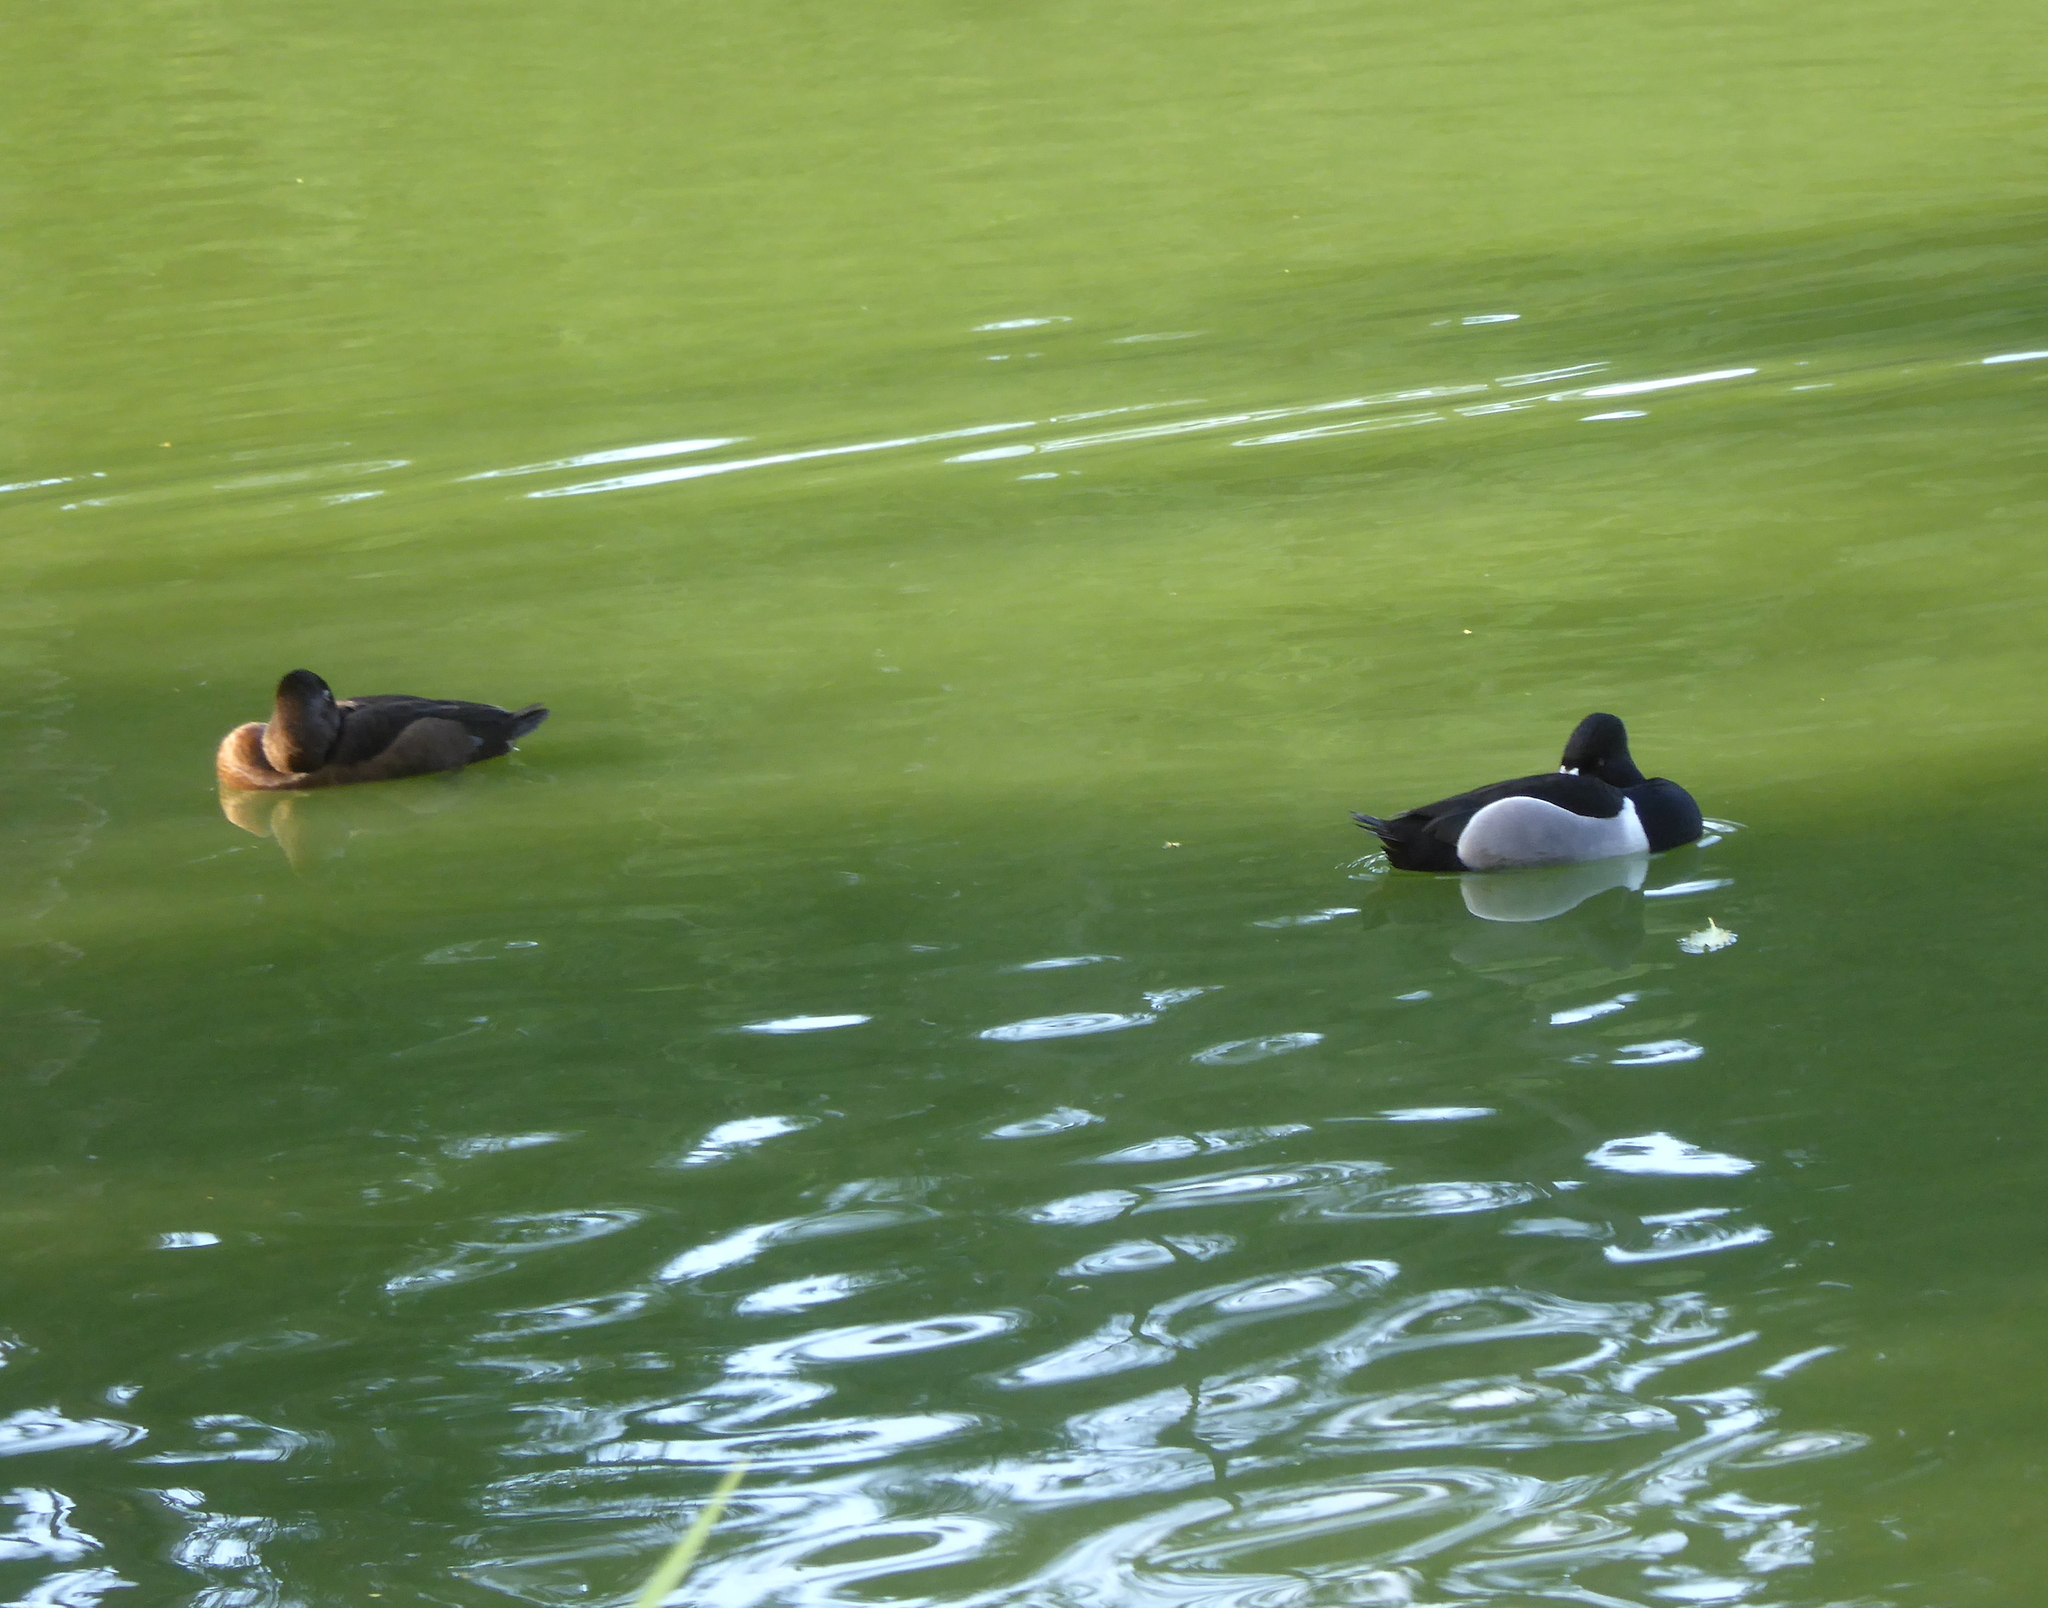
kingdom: Animalia
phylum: Chordata
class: Aves
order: Anseriformes
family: Anatidae
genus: Aythya
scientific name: Aythya collaris
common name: Ring-necked duck
